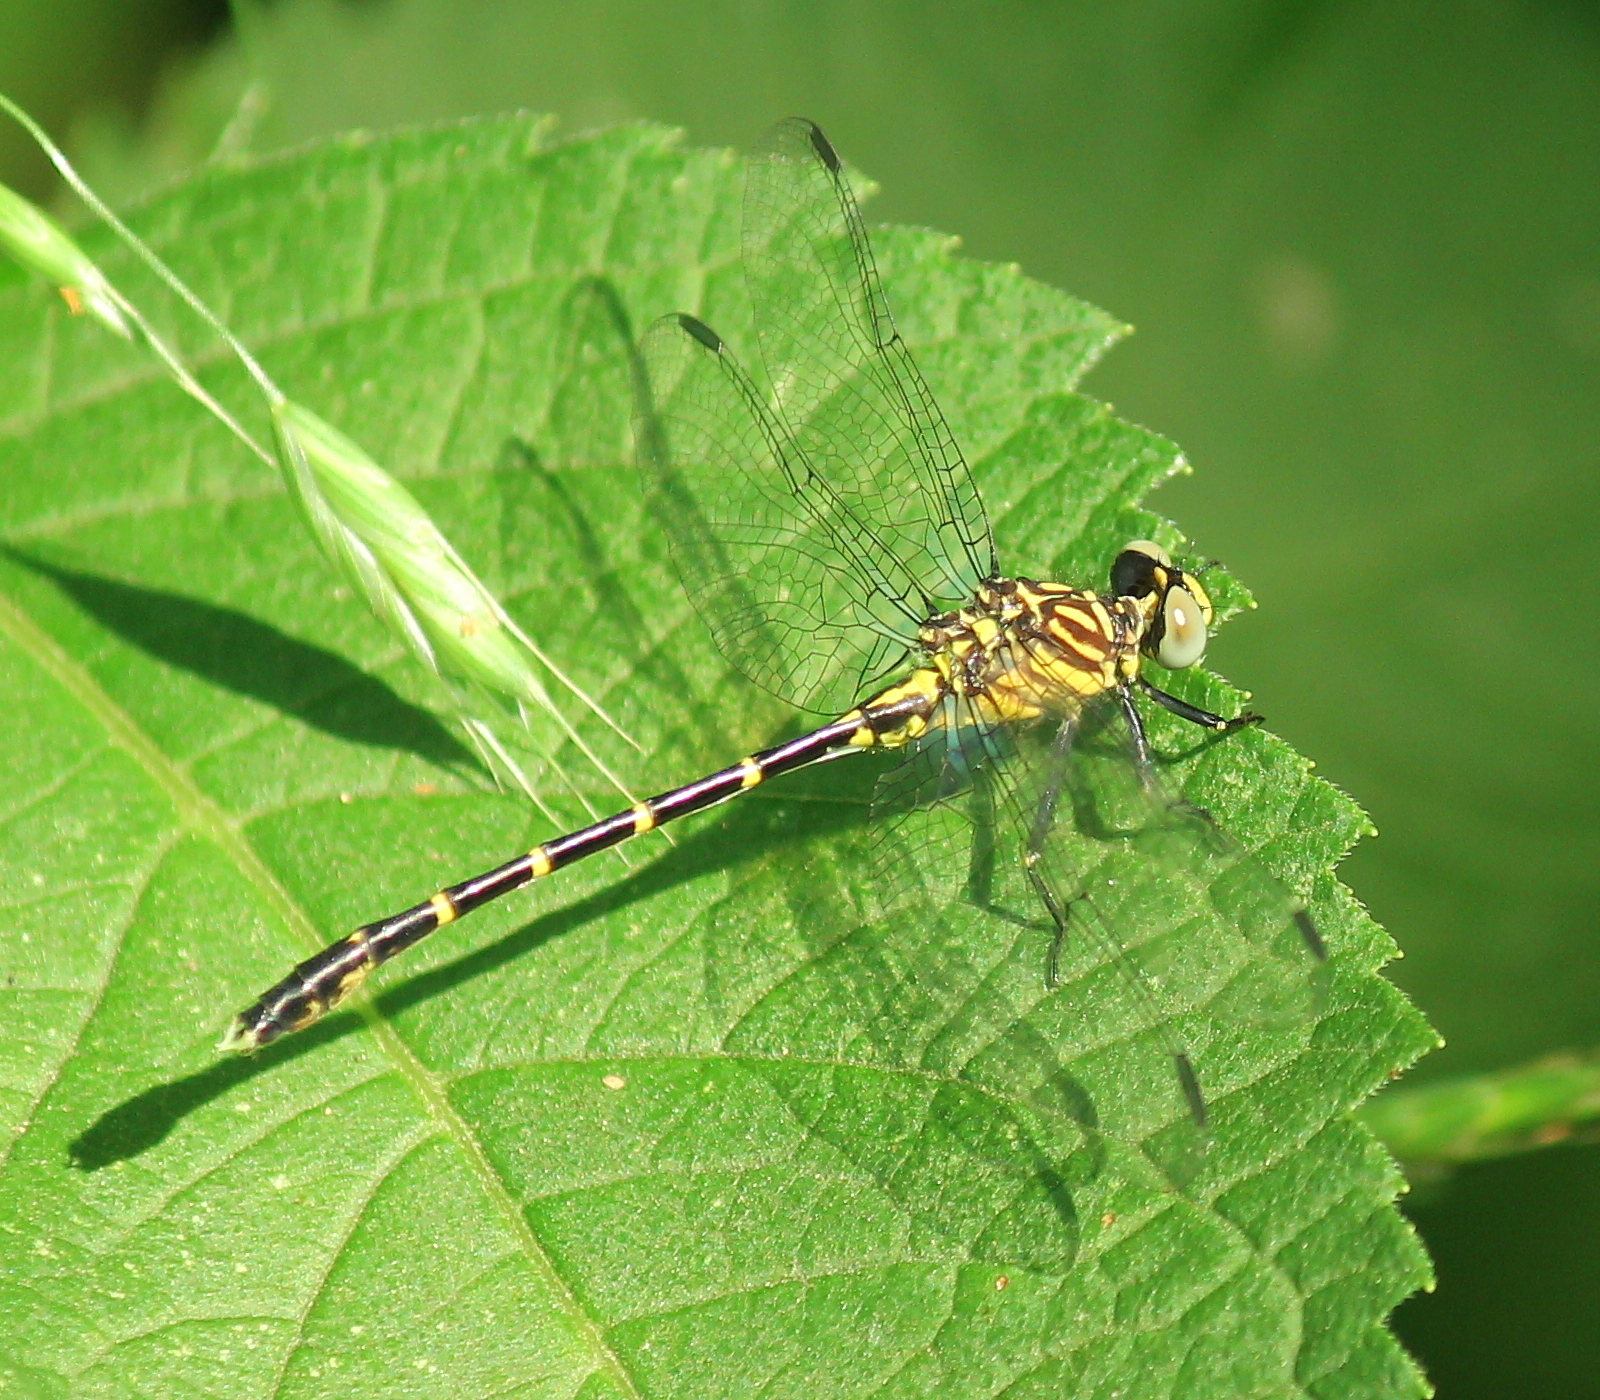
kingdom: Animalia
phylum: Arthropoda
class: Insecta
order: Odonata
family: Gomphidae
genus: Stylogomphus
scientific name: Stylogomphus sigmastylus
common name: Interior least clubtail
